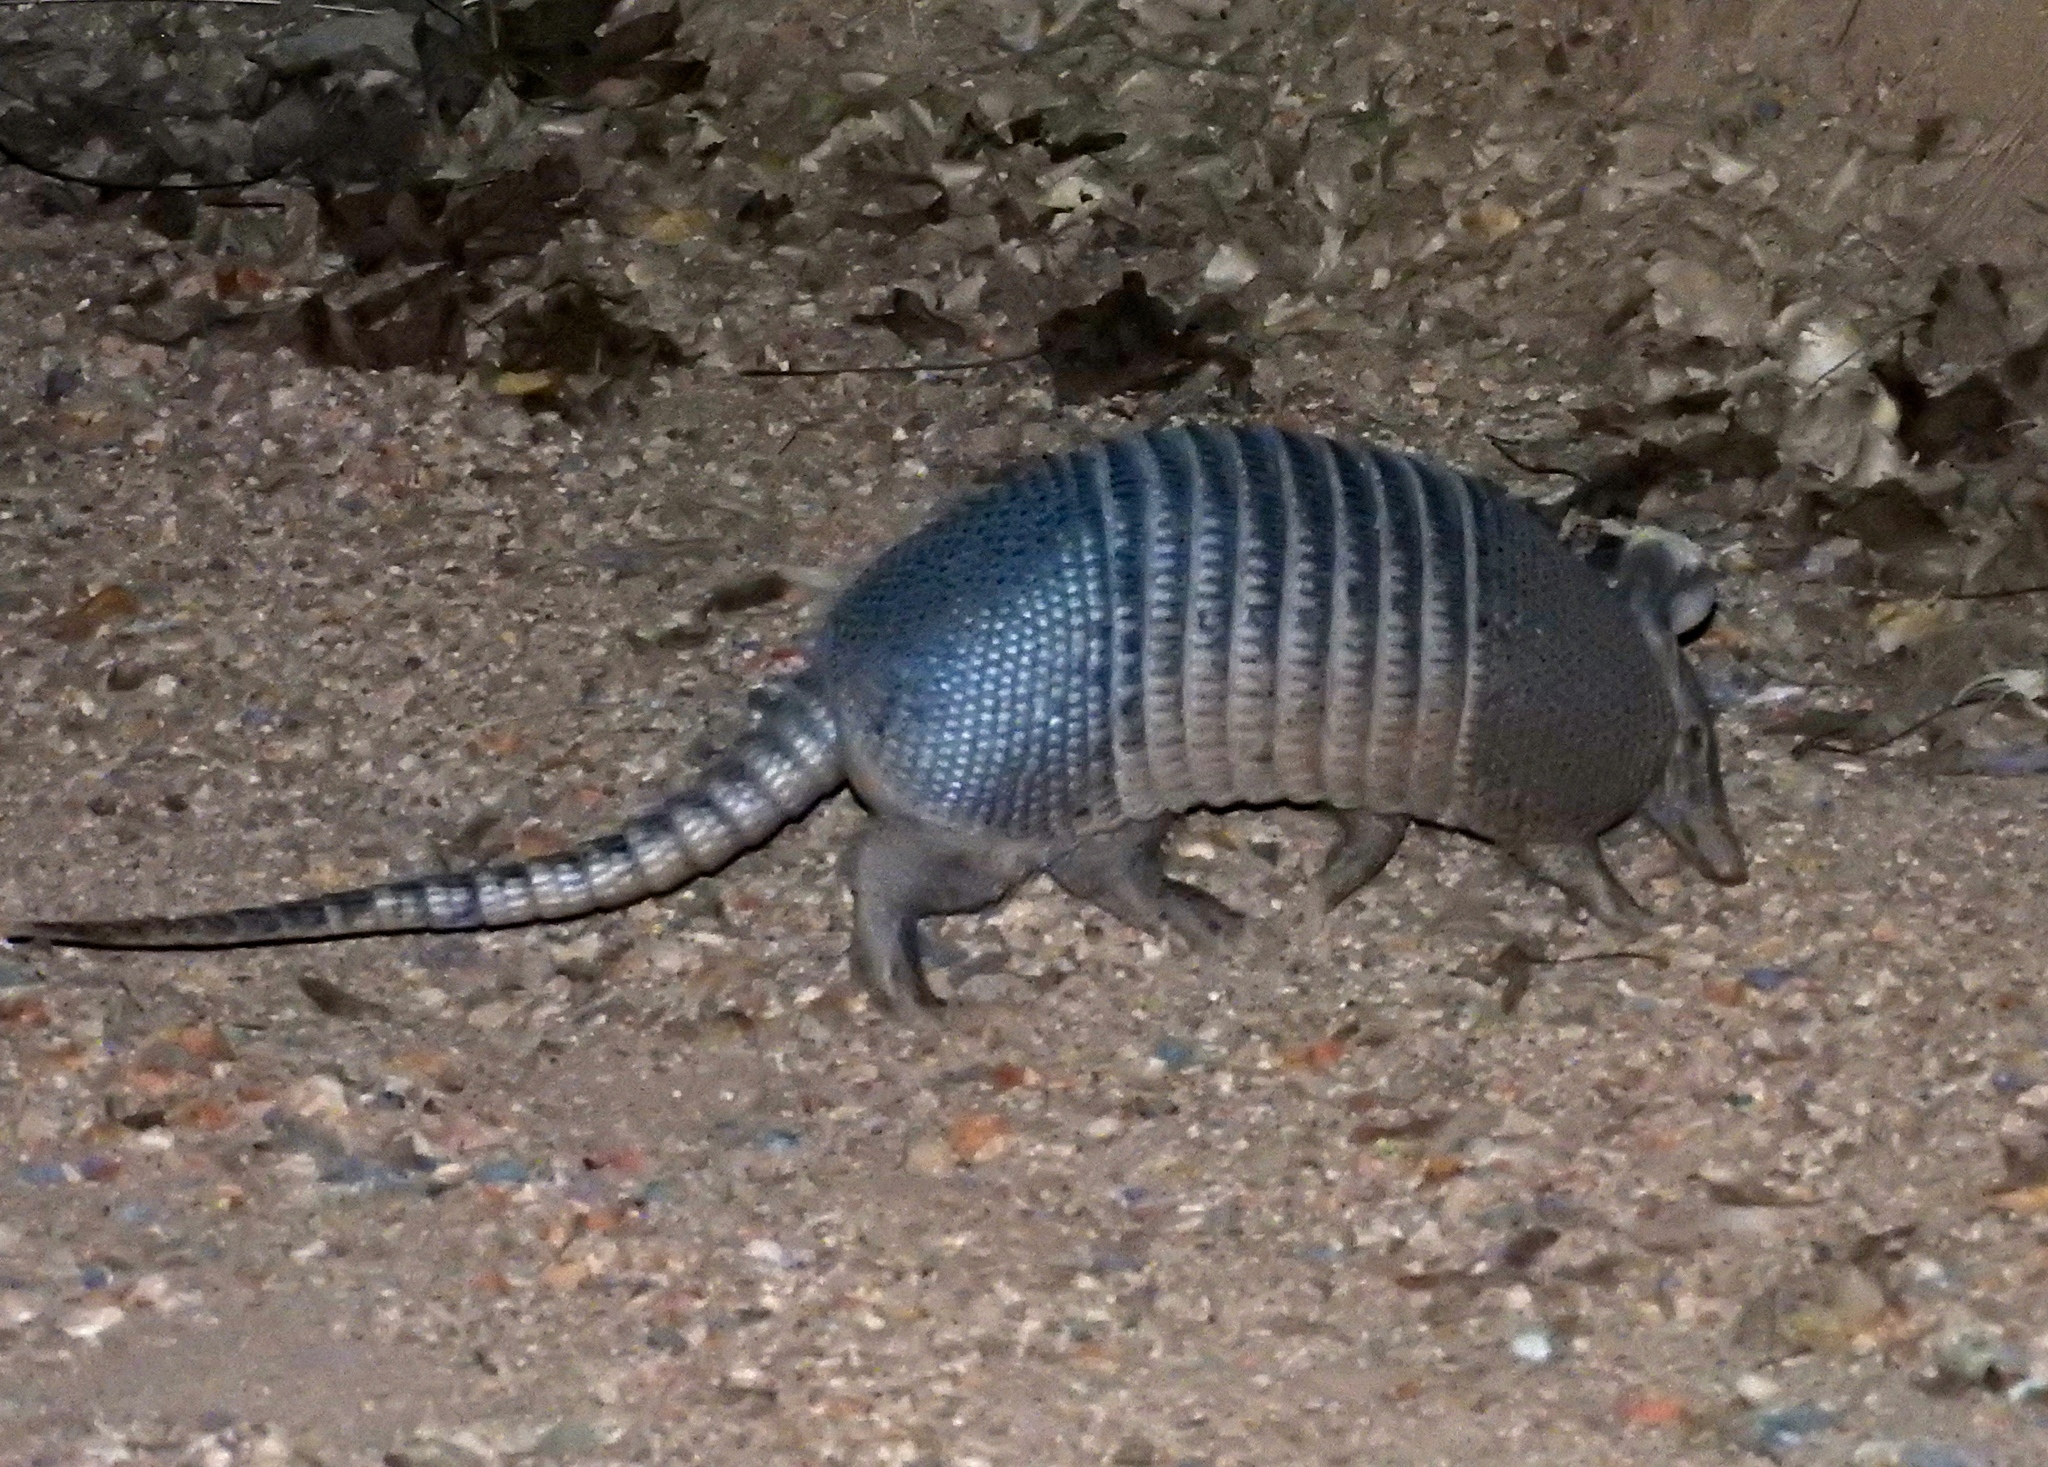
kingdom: Animalia
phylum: Chordata
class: Mammalia
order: Cingulata
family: Dasypodidae
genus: Dasypus
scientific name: Dasypus novemcinctus
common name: Nine-banded armadillo
